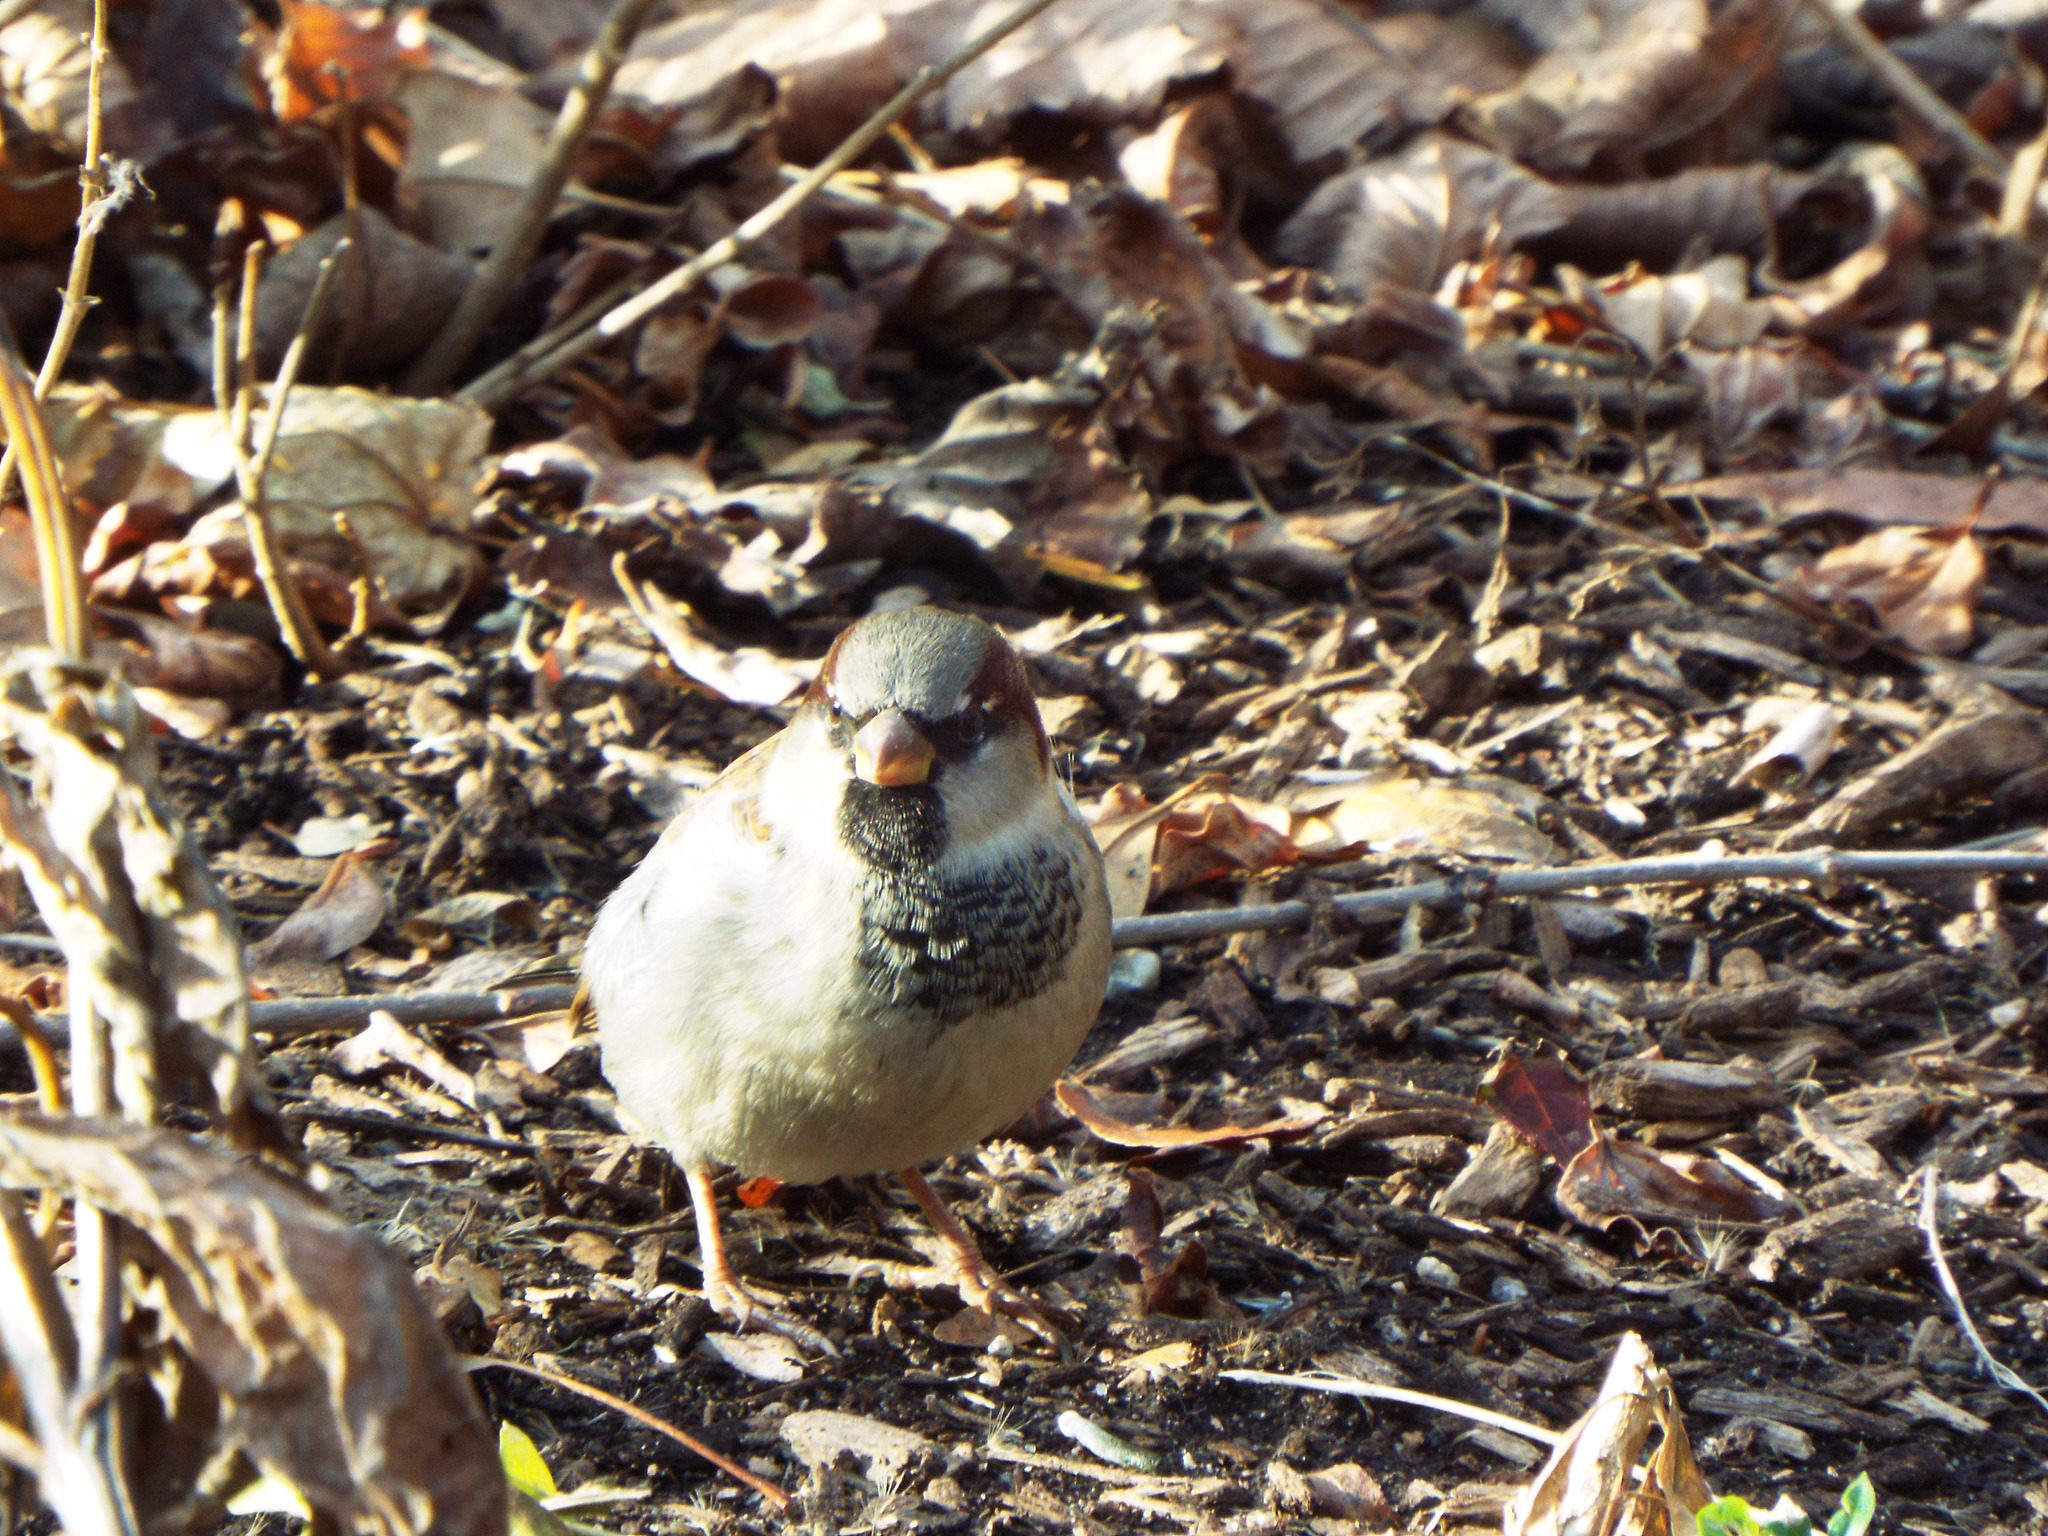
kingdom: Animalia
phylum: Chordata
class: Aves
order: Passeriformes
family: Passeridae
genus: Passer
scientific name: Passer domesticus
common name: House sparrow
